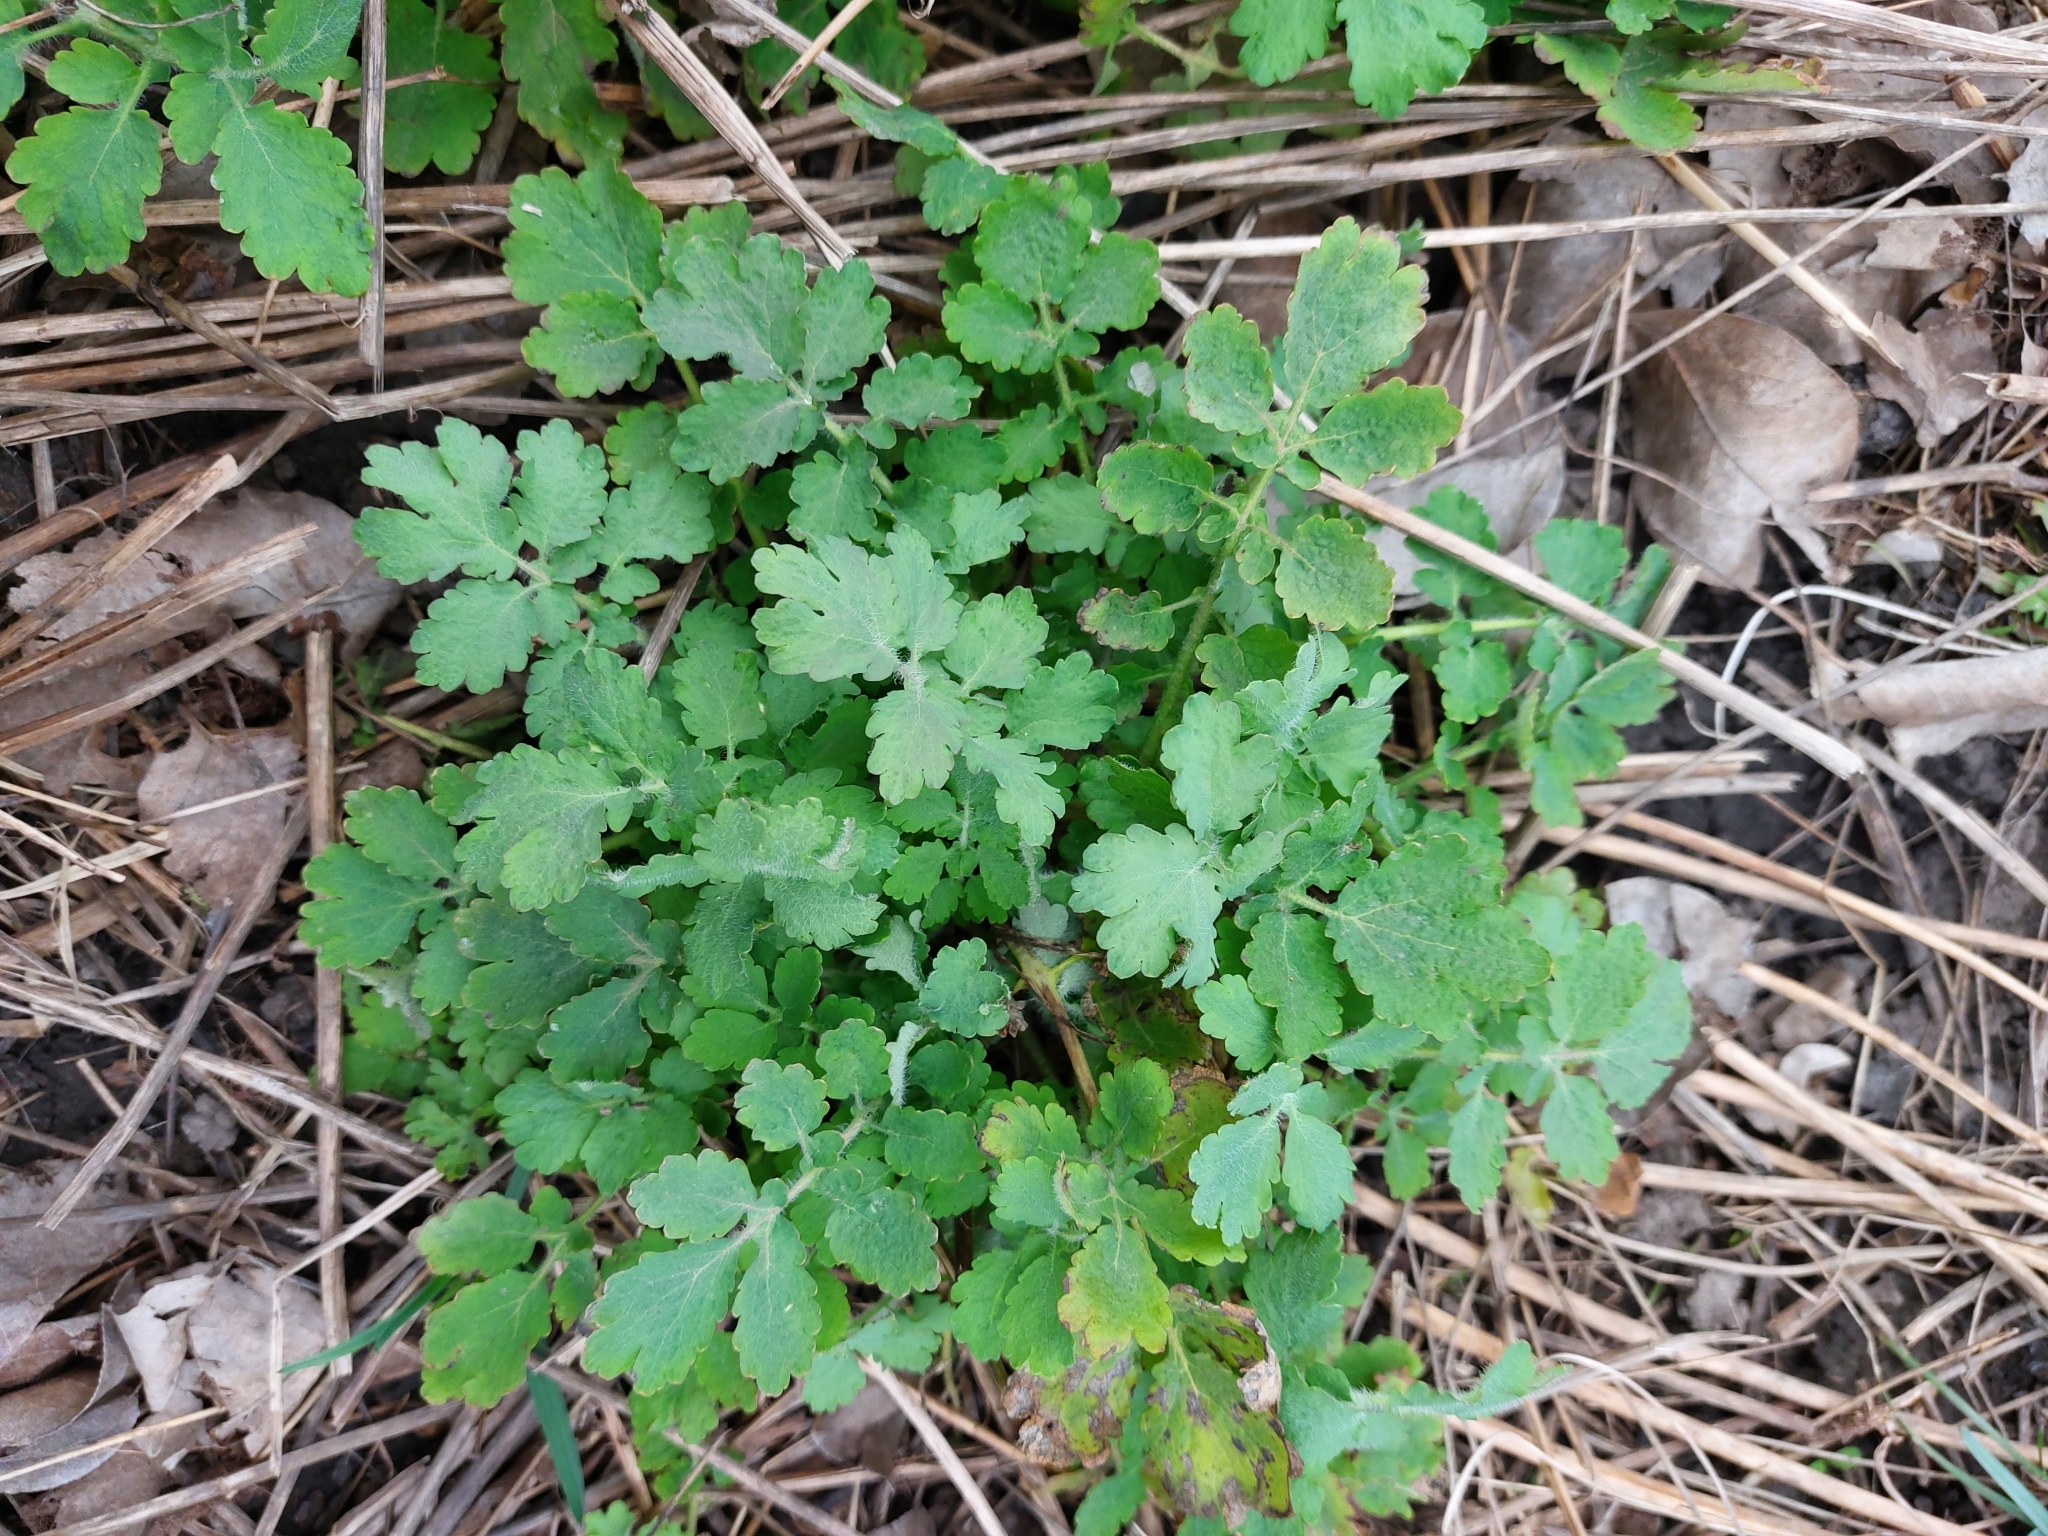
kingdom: Plantae
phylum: Tracheophyta
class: Magnoliopsida
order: Ranunculales
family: Papaveraceae
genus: Chelidonium
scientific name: Chelidonium majus
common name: Greater celandine
